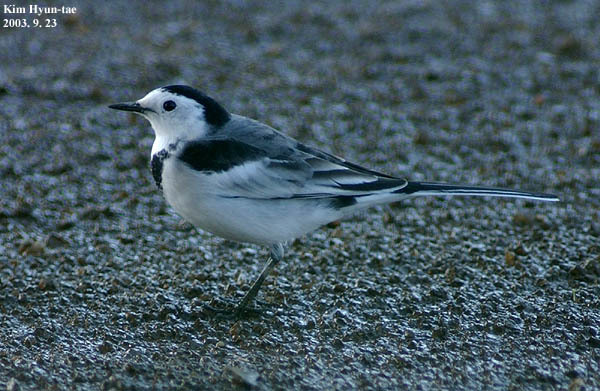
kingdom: Animalia
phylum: Chordata
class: Aves
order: Passeriformes
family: Motacillidae
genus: Motacilla
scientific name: Motacilla alba
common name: White wagtail
